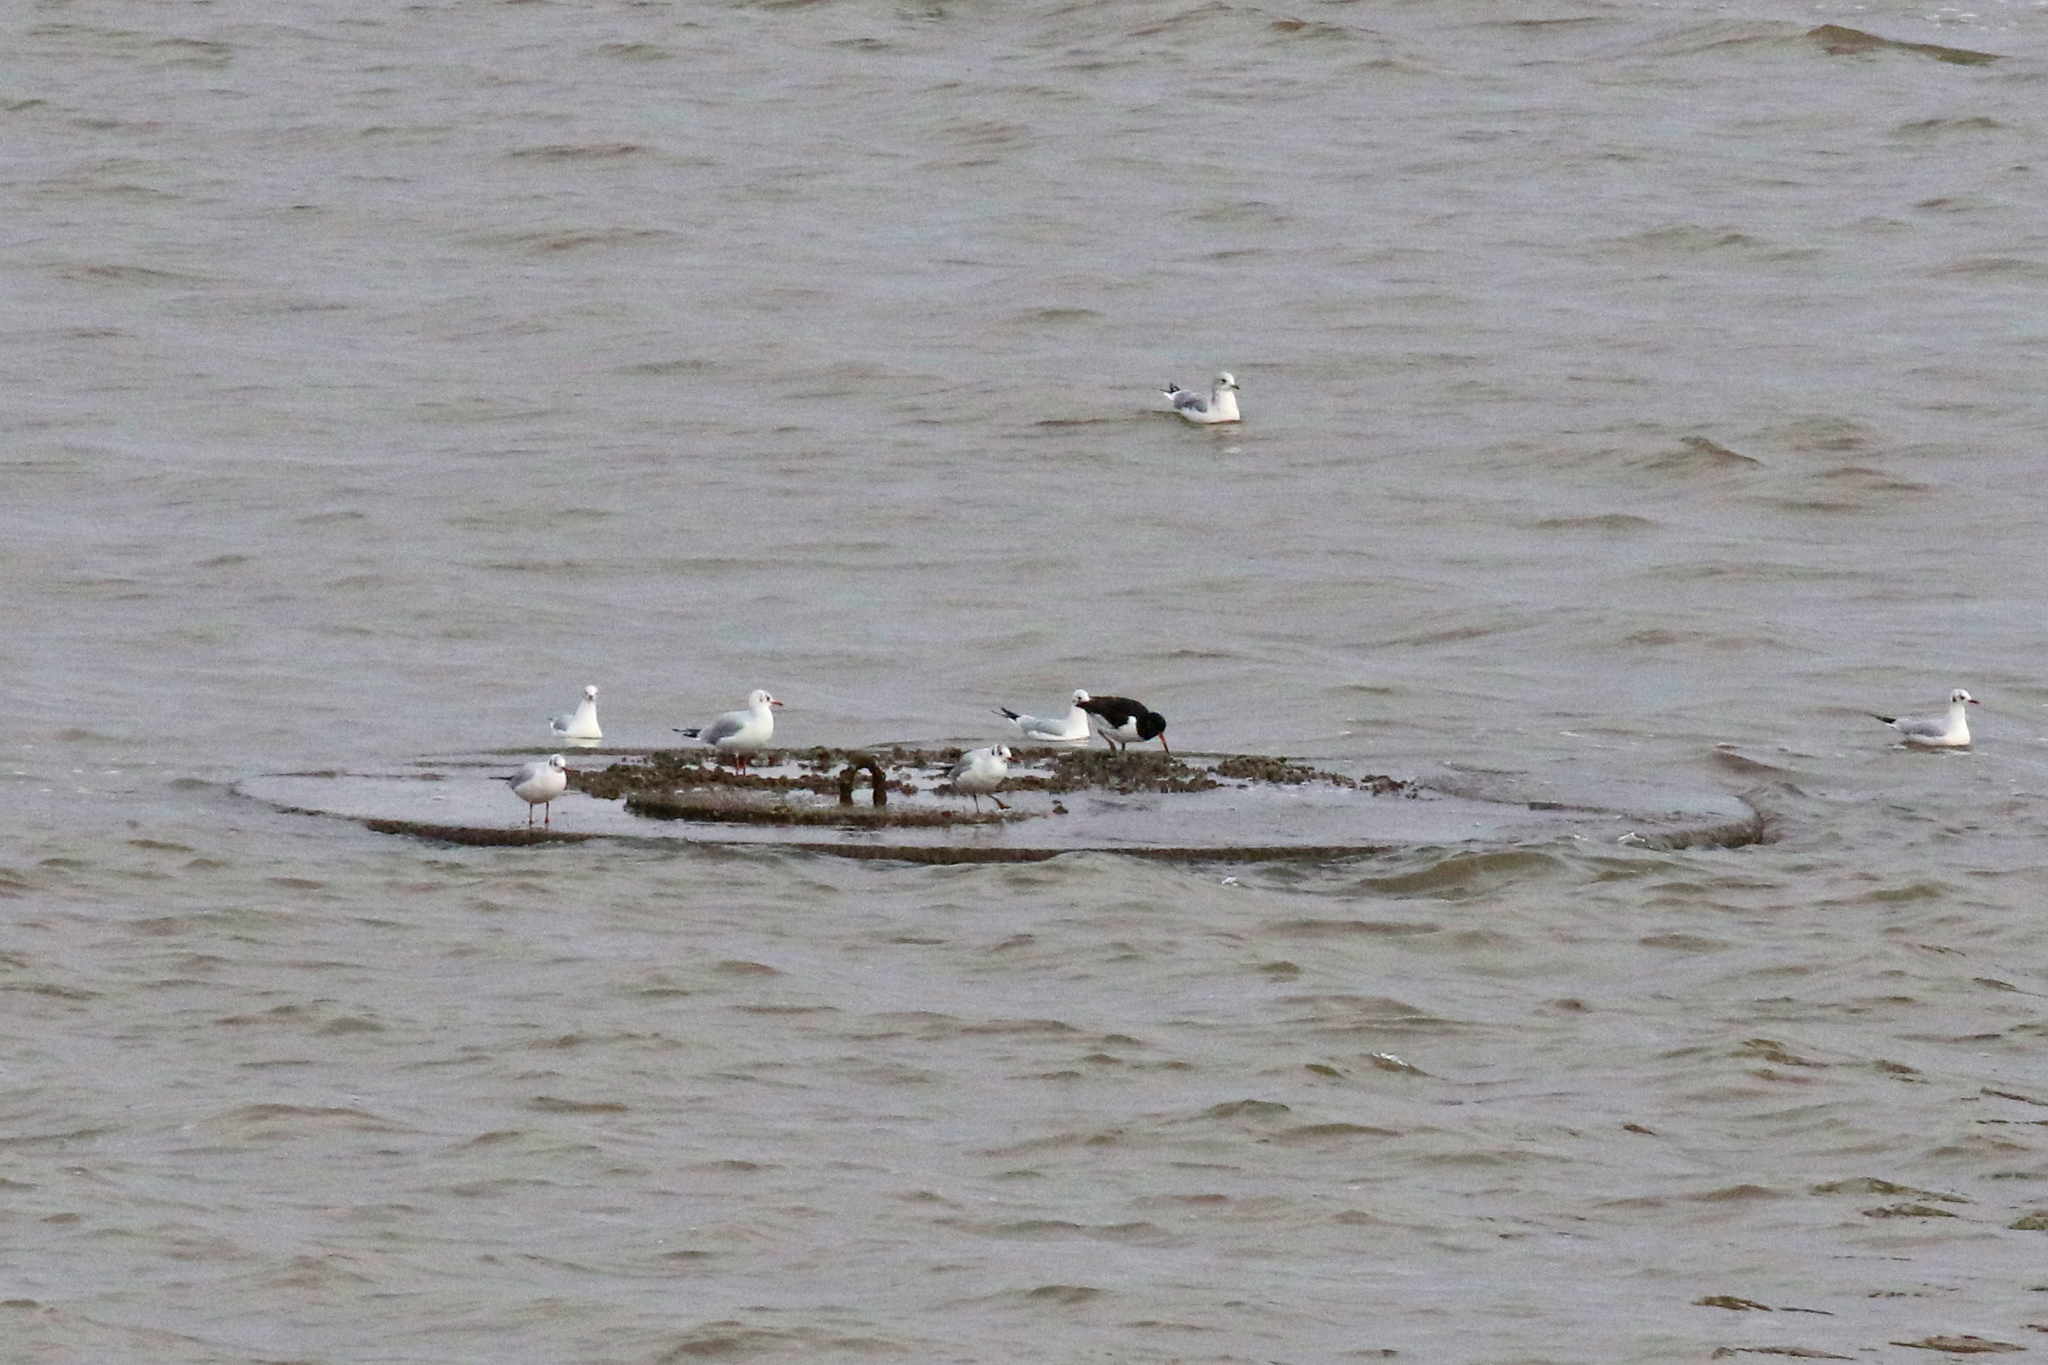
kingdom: Animalia
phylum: Chordata
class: Aves
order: Charadriiformes
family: Haematopodidae
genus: Haematopus
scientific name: Haematopus ostralegus
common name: Eurasian oystercatcher
